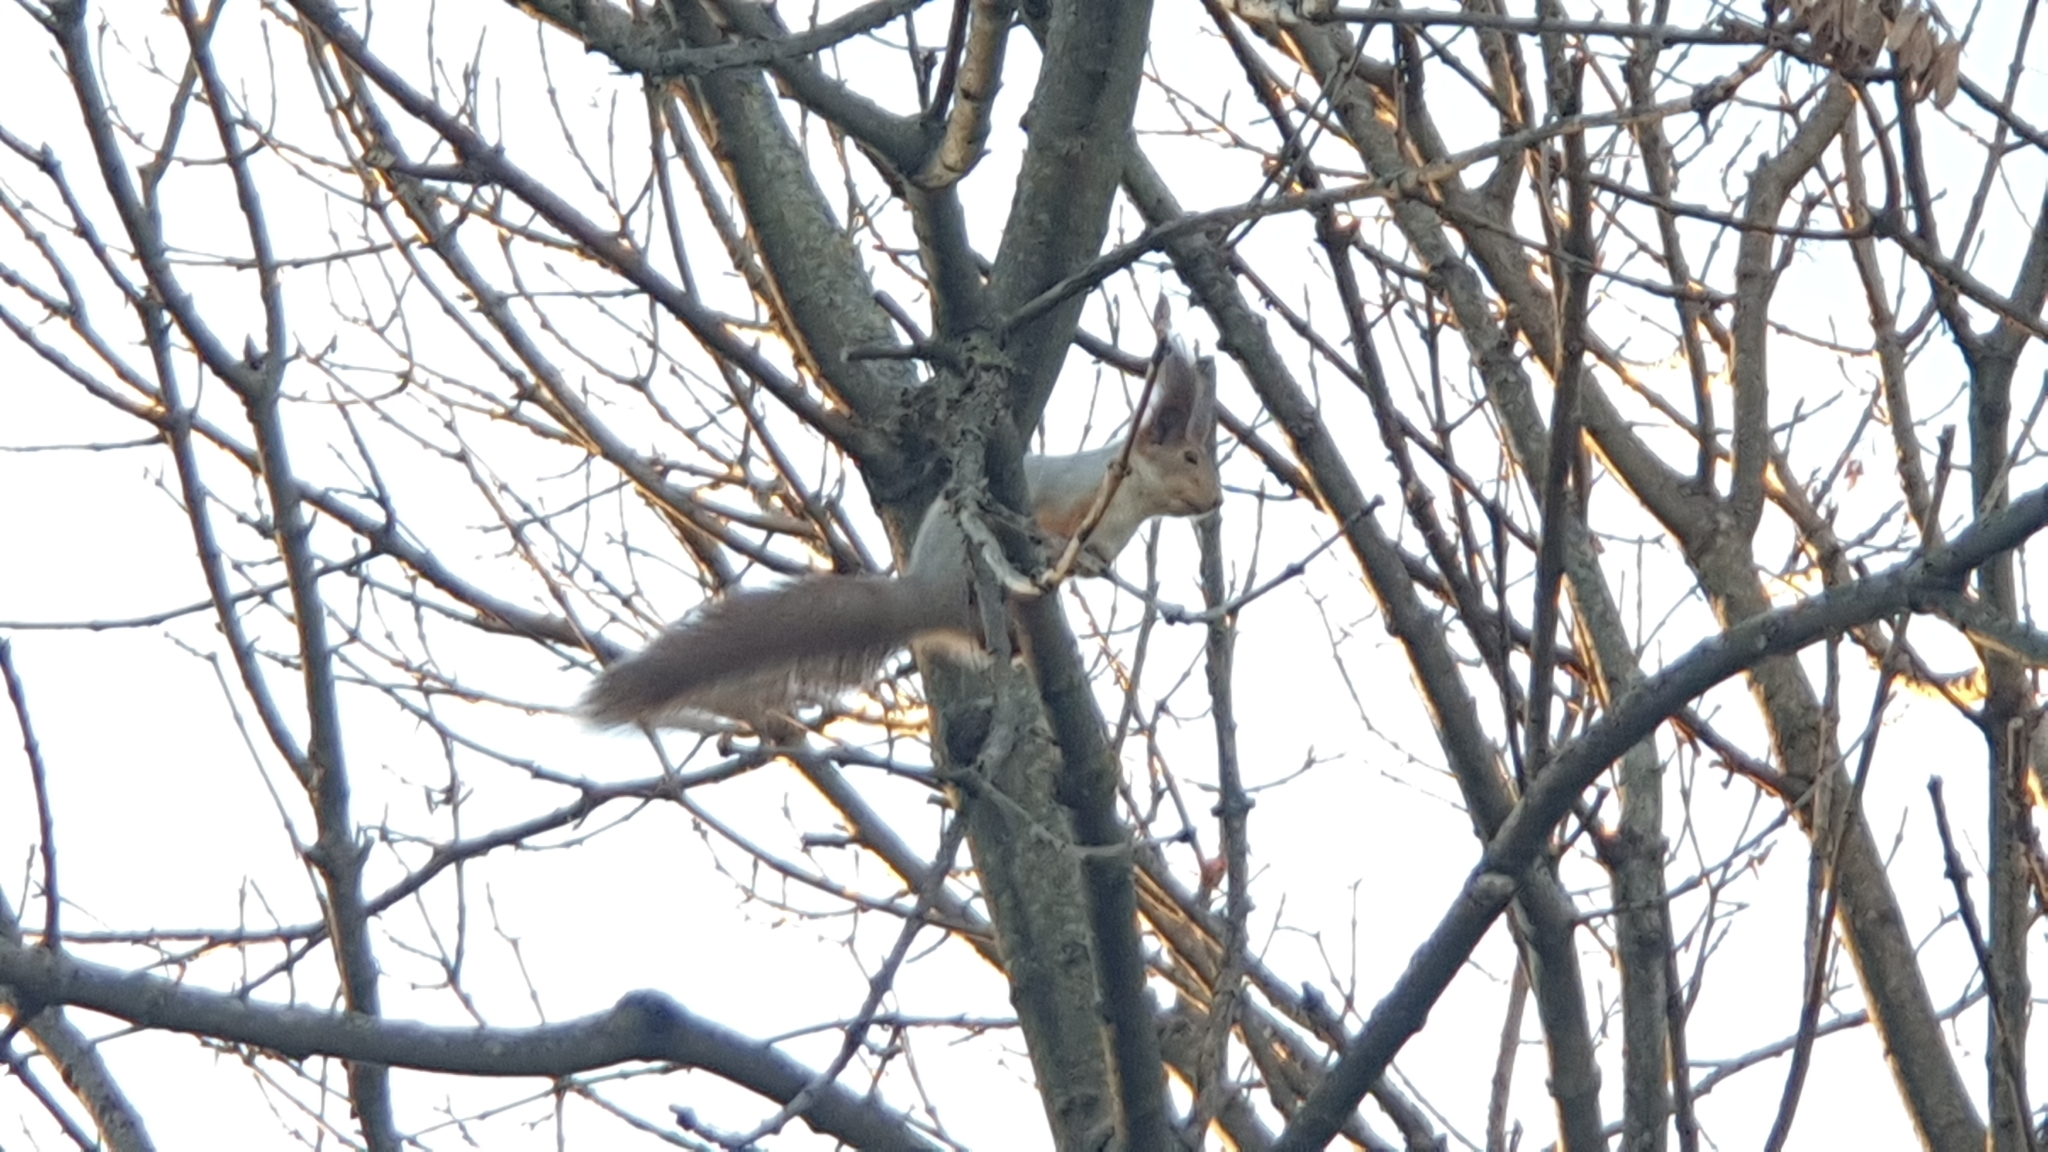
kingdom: Animalia
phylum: Chordata
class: Mammalia
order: Rodentia
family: Sciuridae
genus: Sciurus
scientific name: Sciurus vulgaris
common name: Eurasian red squirrel
